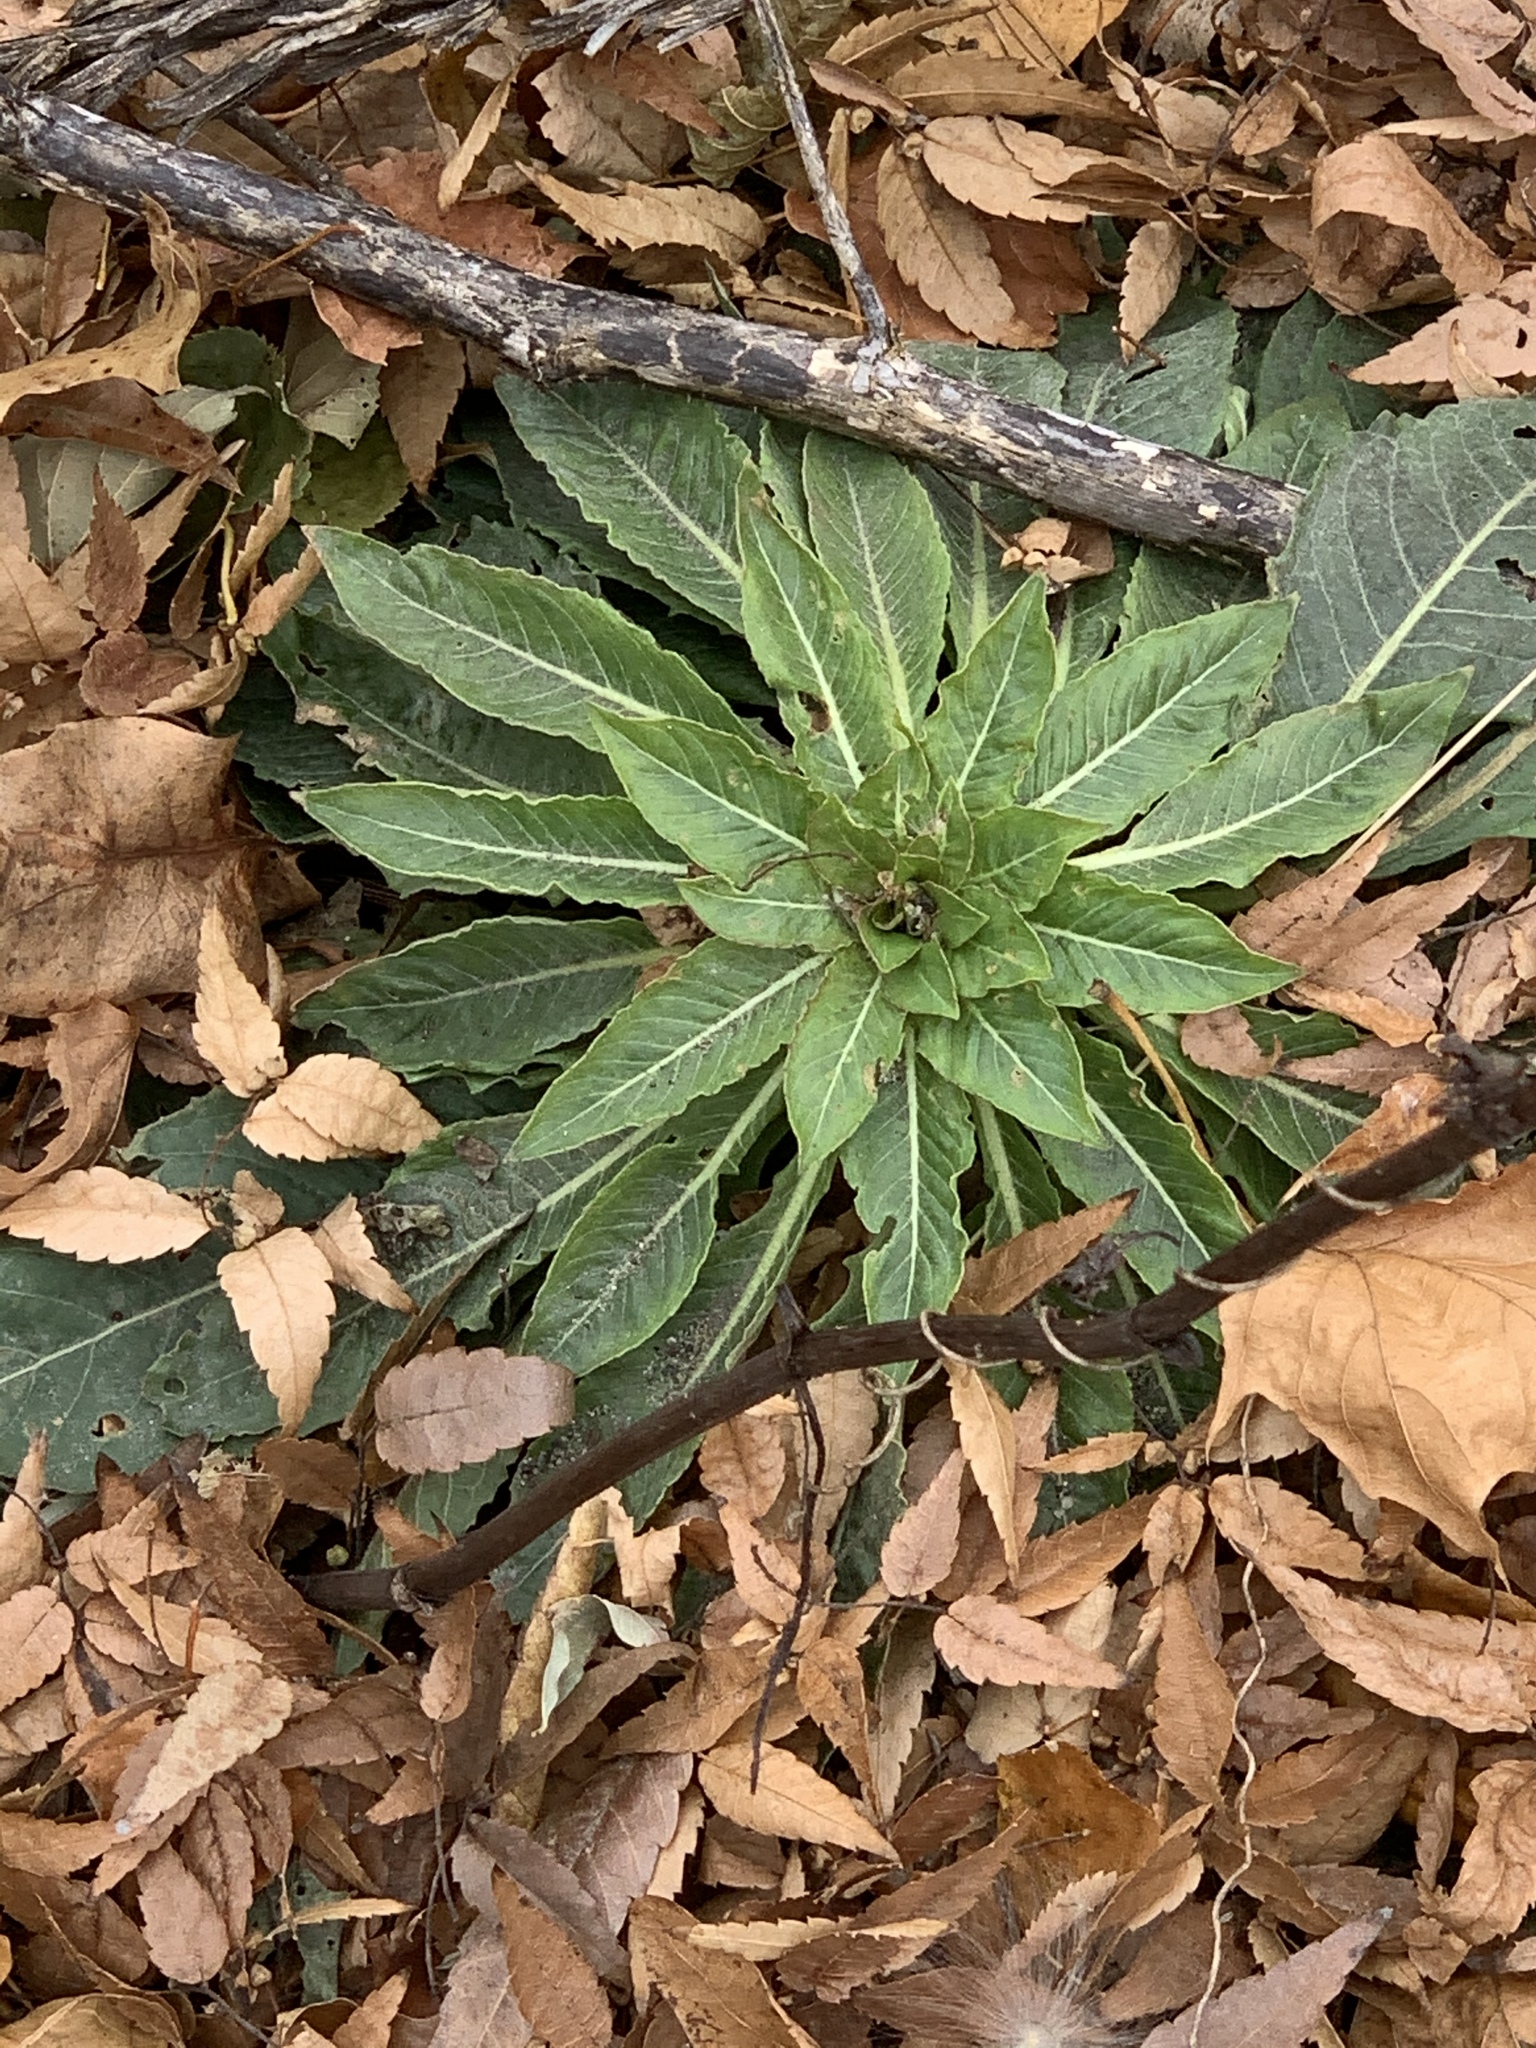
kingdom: Plantae
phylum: Tracheophyta
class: Magnoliopsida
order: Myrtales
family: Onagraceae
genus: Oenothera
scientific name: Oenothera biennis
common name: Common evening-primrose
